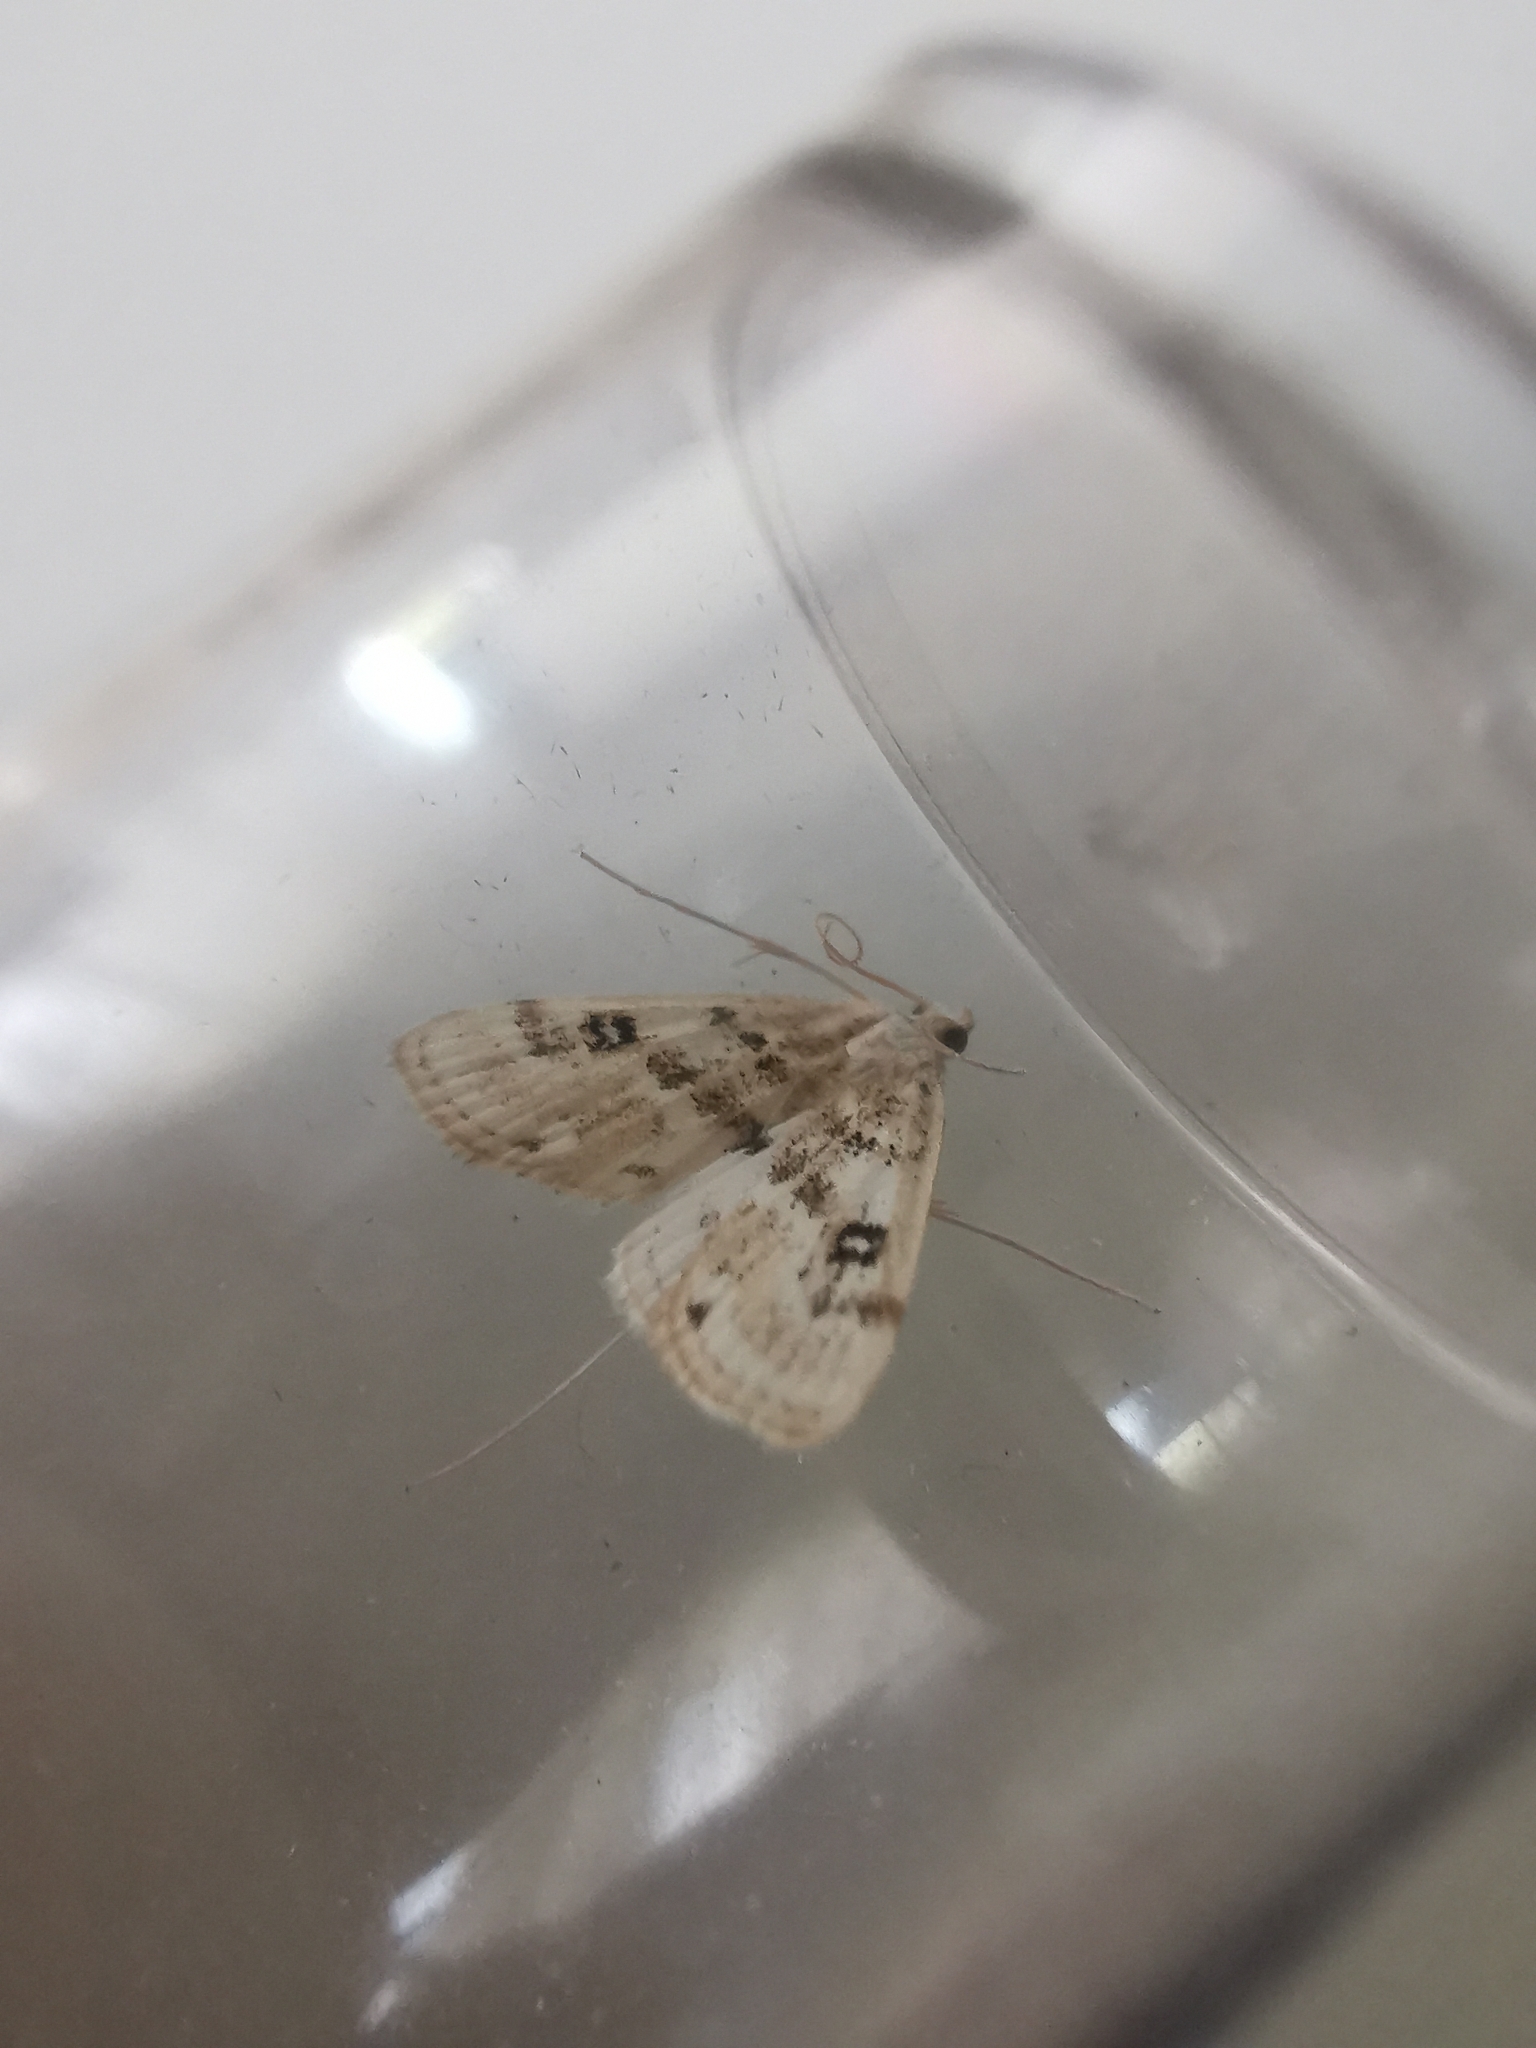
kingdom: Animalia
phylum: Arthropoda
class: Insecta
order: Lepidoptera
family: Crambidae
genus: Parapoynx
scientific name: Parapoynx stratiotata
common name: Ringed china-mark
